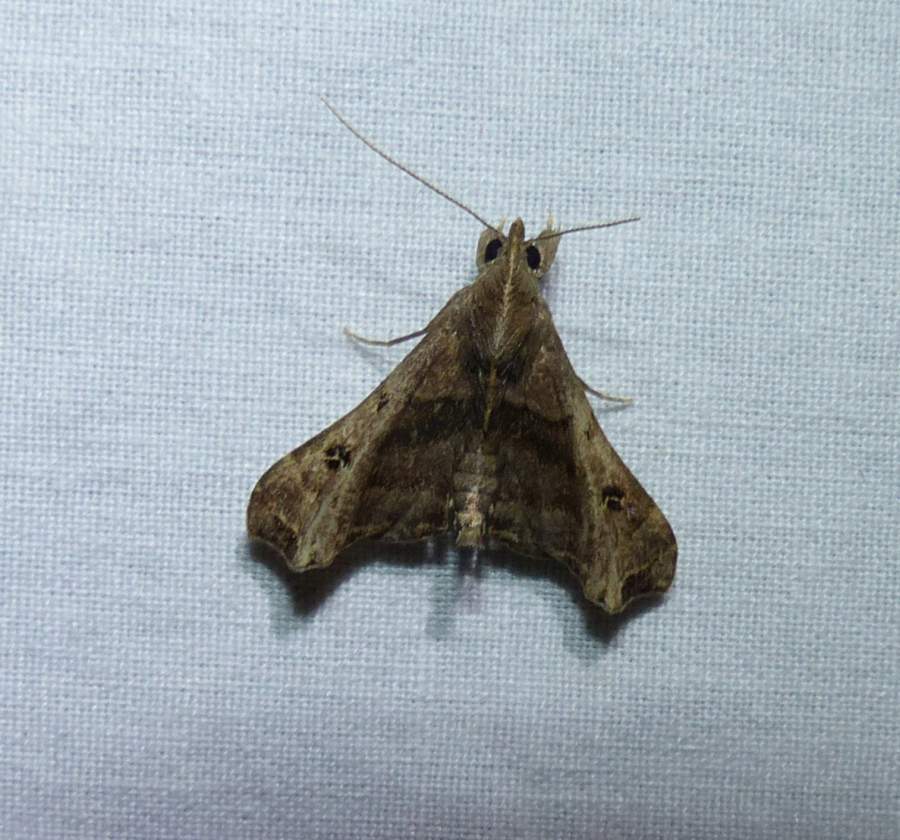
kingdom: Animalia
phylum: Arthropoda
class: Insecta
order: Lepidoptera
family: Erebidae
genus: Palthis
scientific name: Palthis asopialis
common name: Faint-spotted palthis moth
